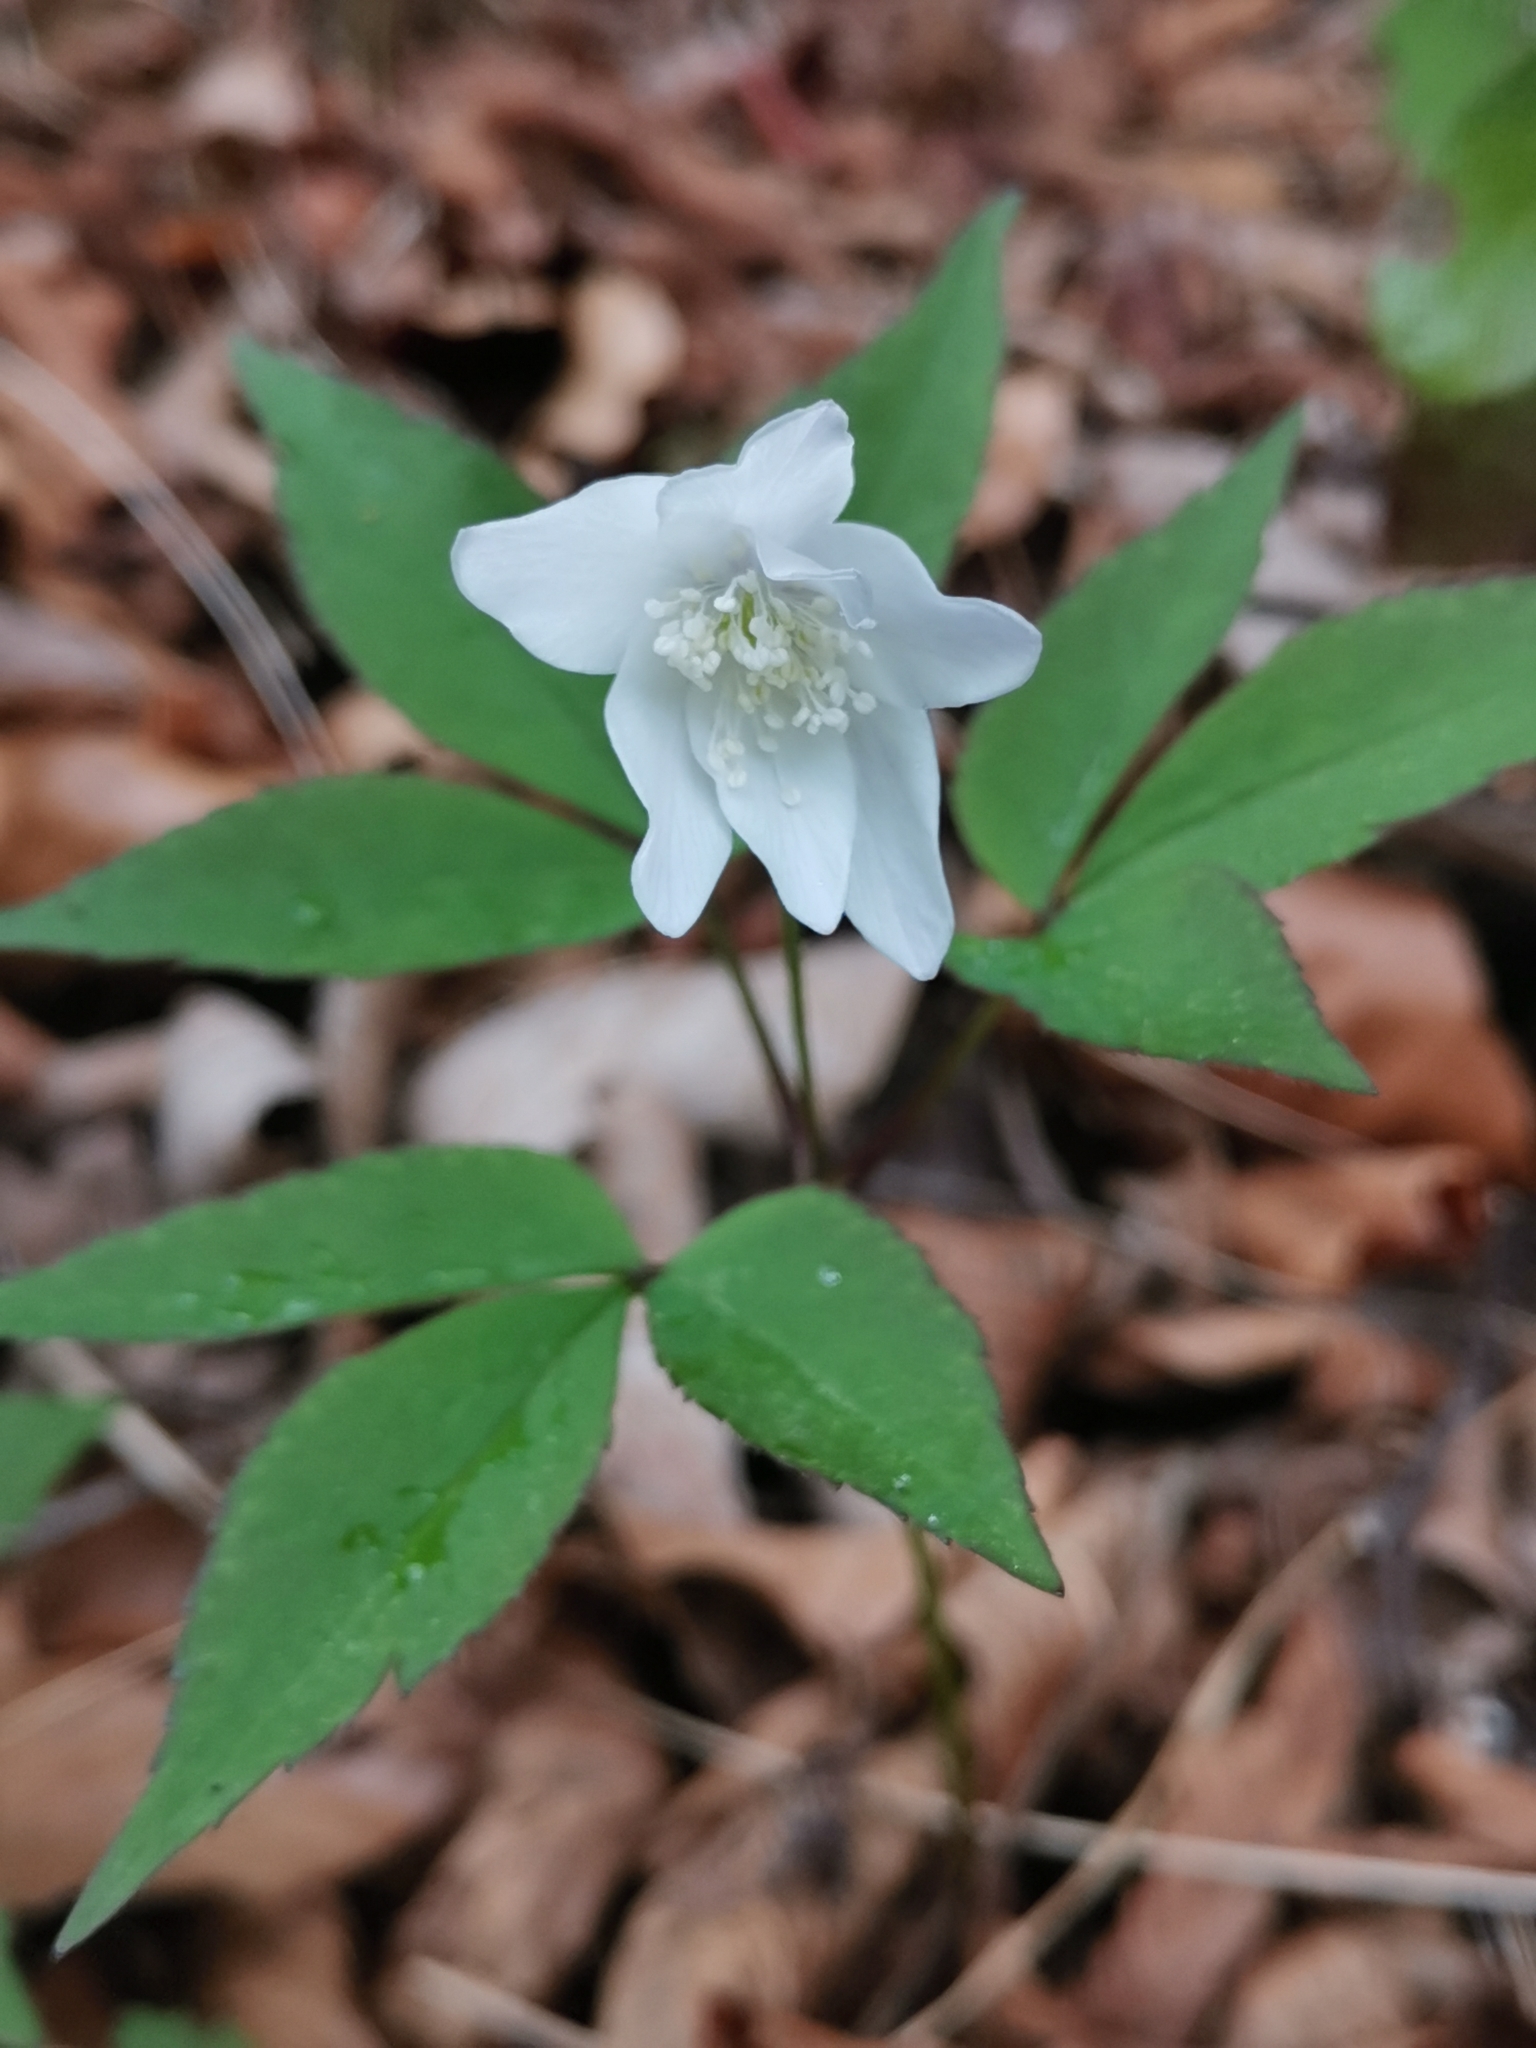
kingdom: Plantae
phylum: Tracheophyta
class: Magnoliopsida
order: Ranunculales
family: Ranunculaceae
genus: Anemone
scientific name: Anemone trifolia
